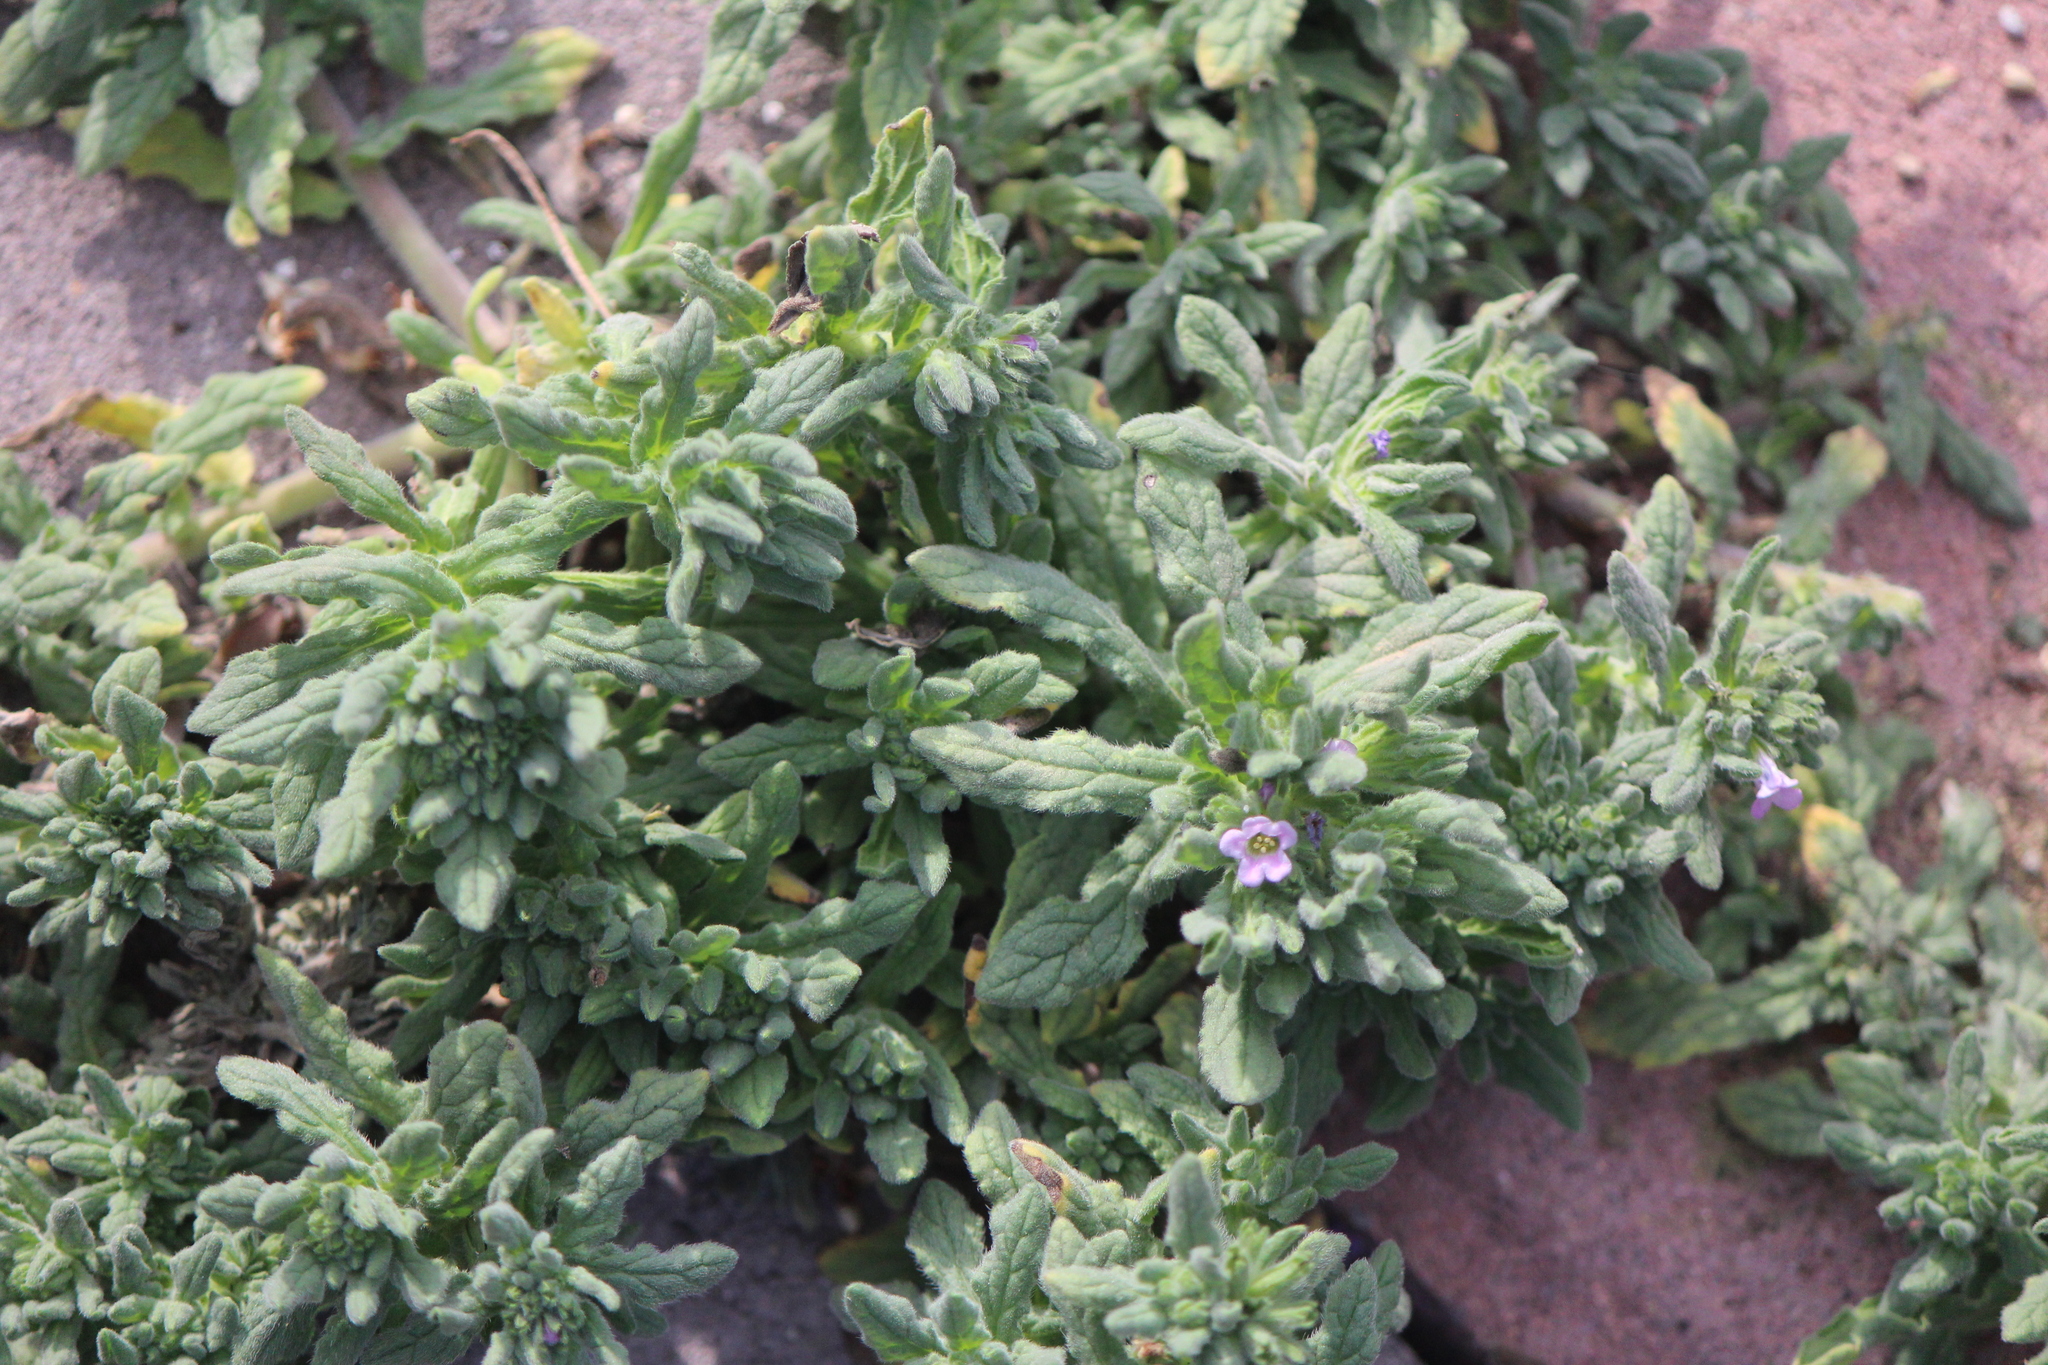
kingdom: Plantae
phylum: Tracheophyta
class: Magnoliopsida
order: Boraginales
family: Namaceae
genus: Nama
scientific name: Nama hispida
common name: Bristly nama
